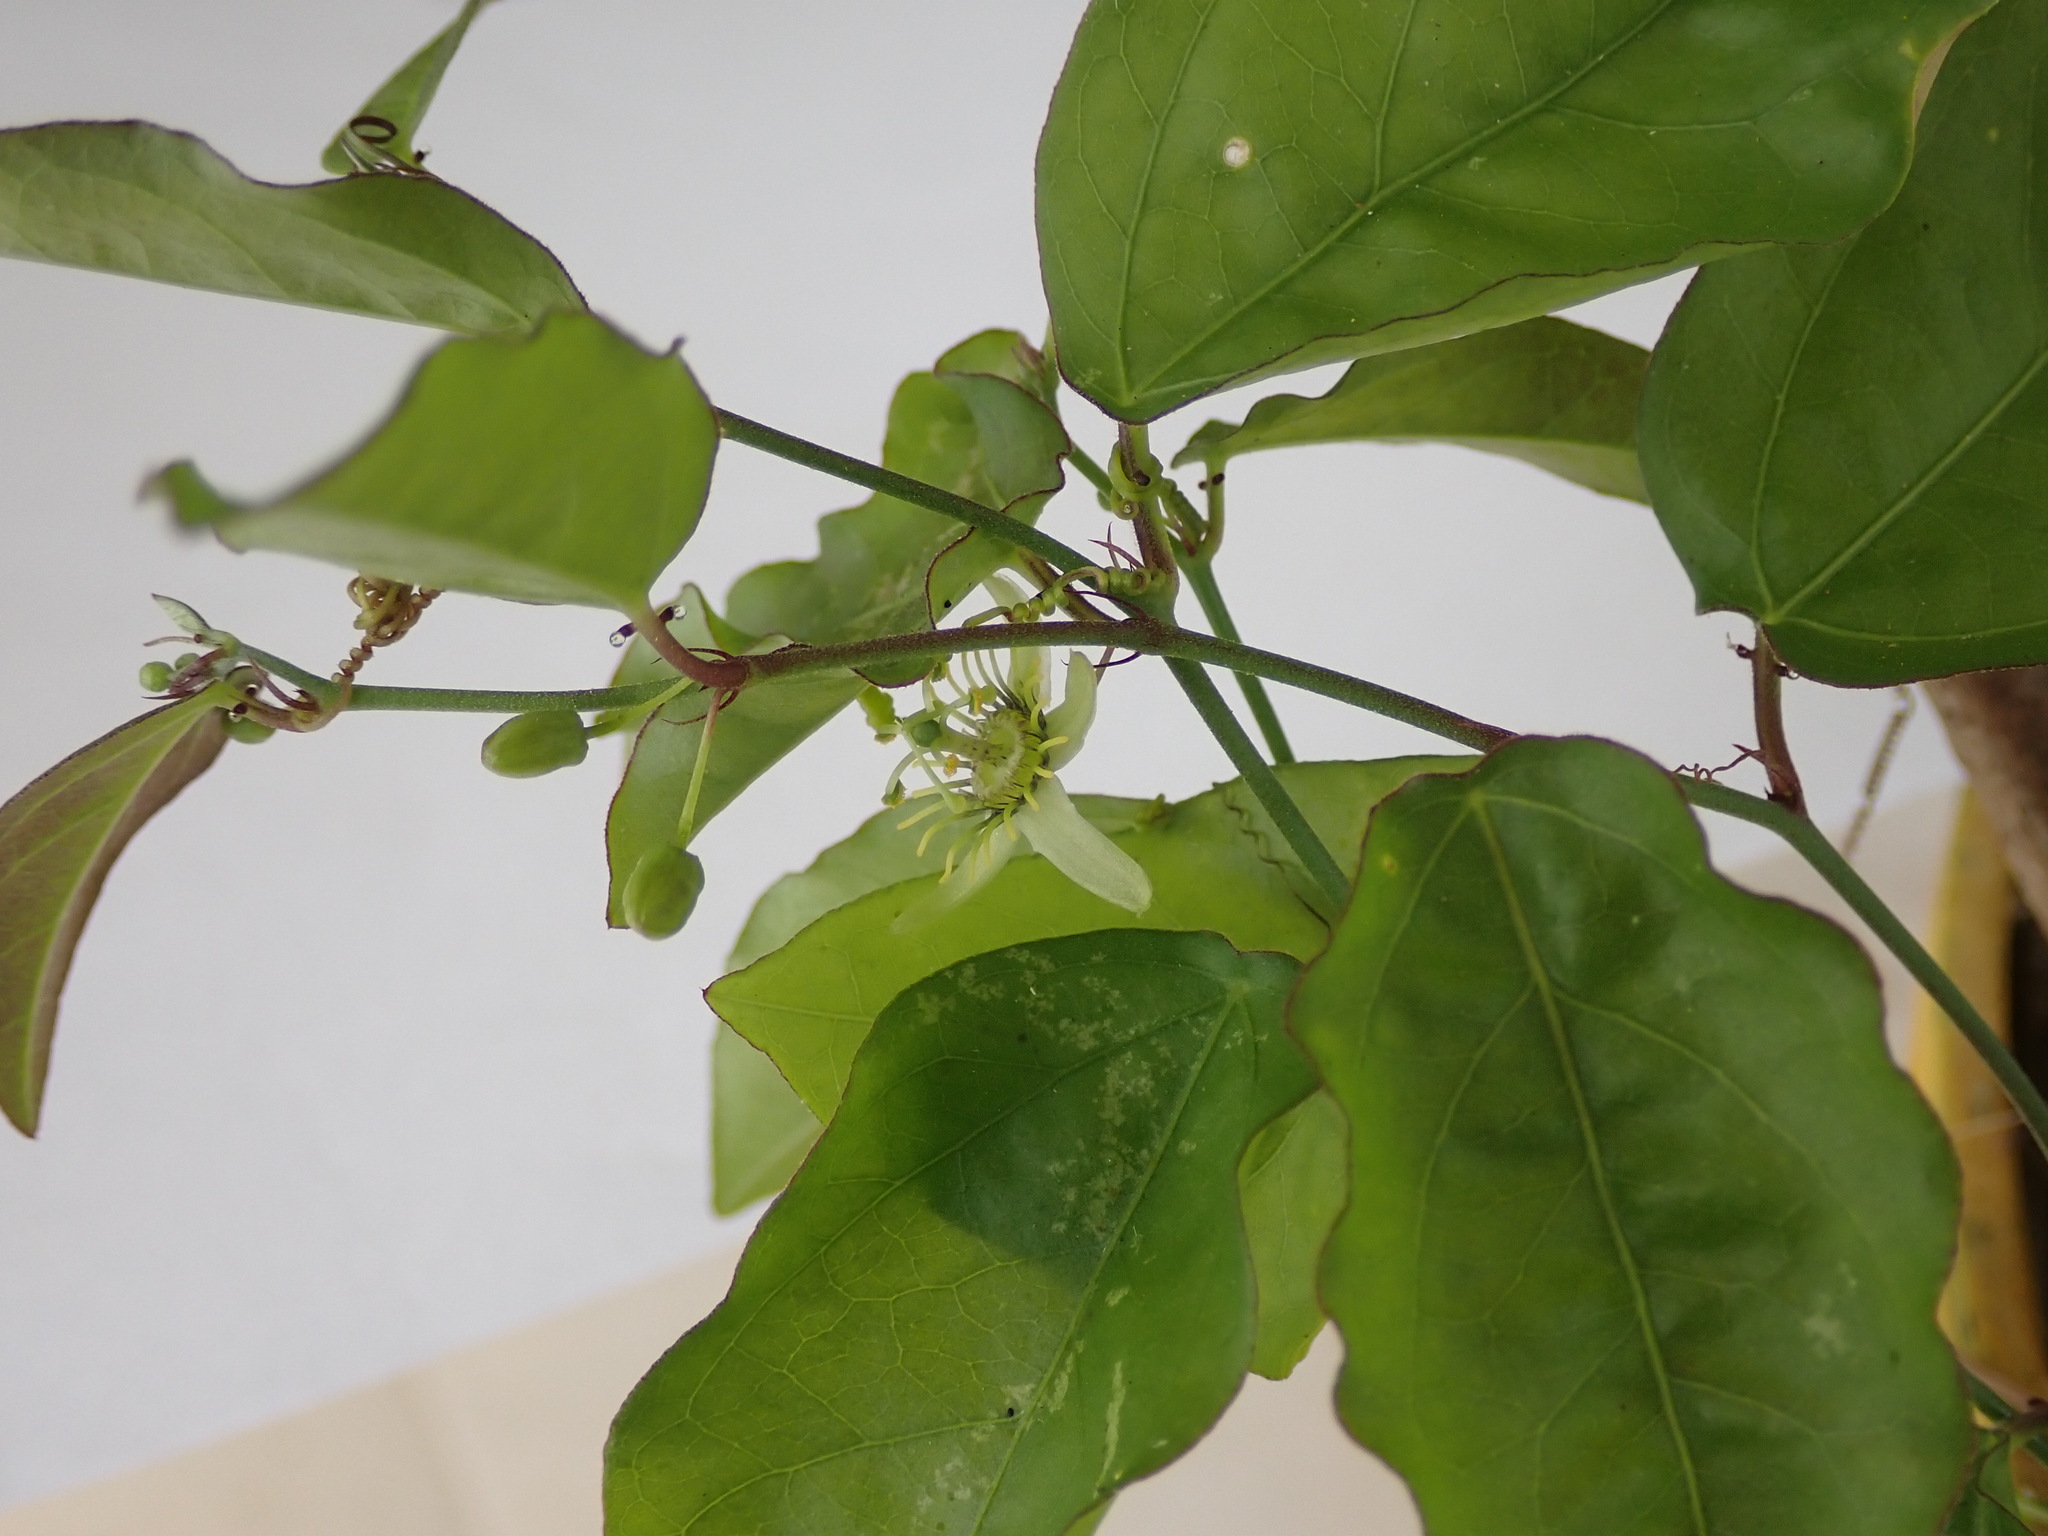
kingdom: Plantae
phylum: Tracheophyta
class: Magnoliopsida
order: Malpighiales
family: Passifloraceae
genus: Passiflora
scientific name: Passiflora pallida
